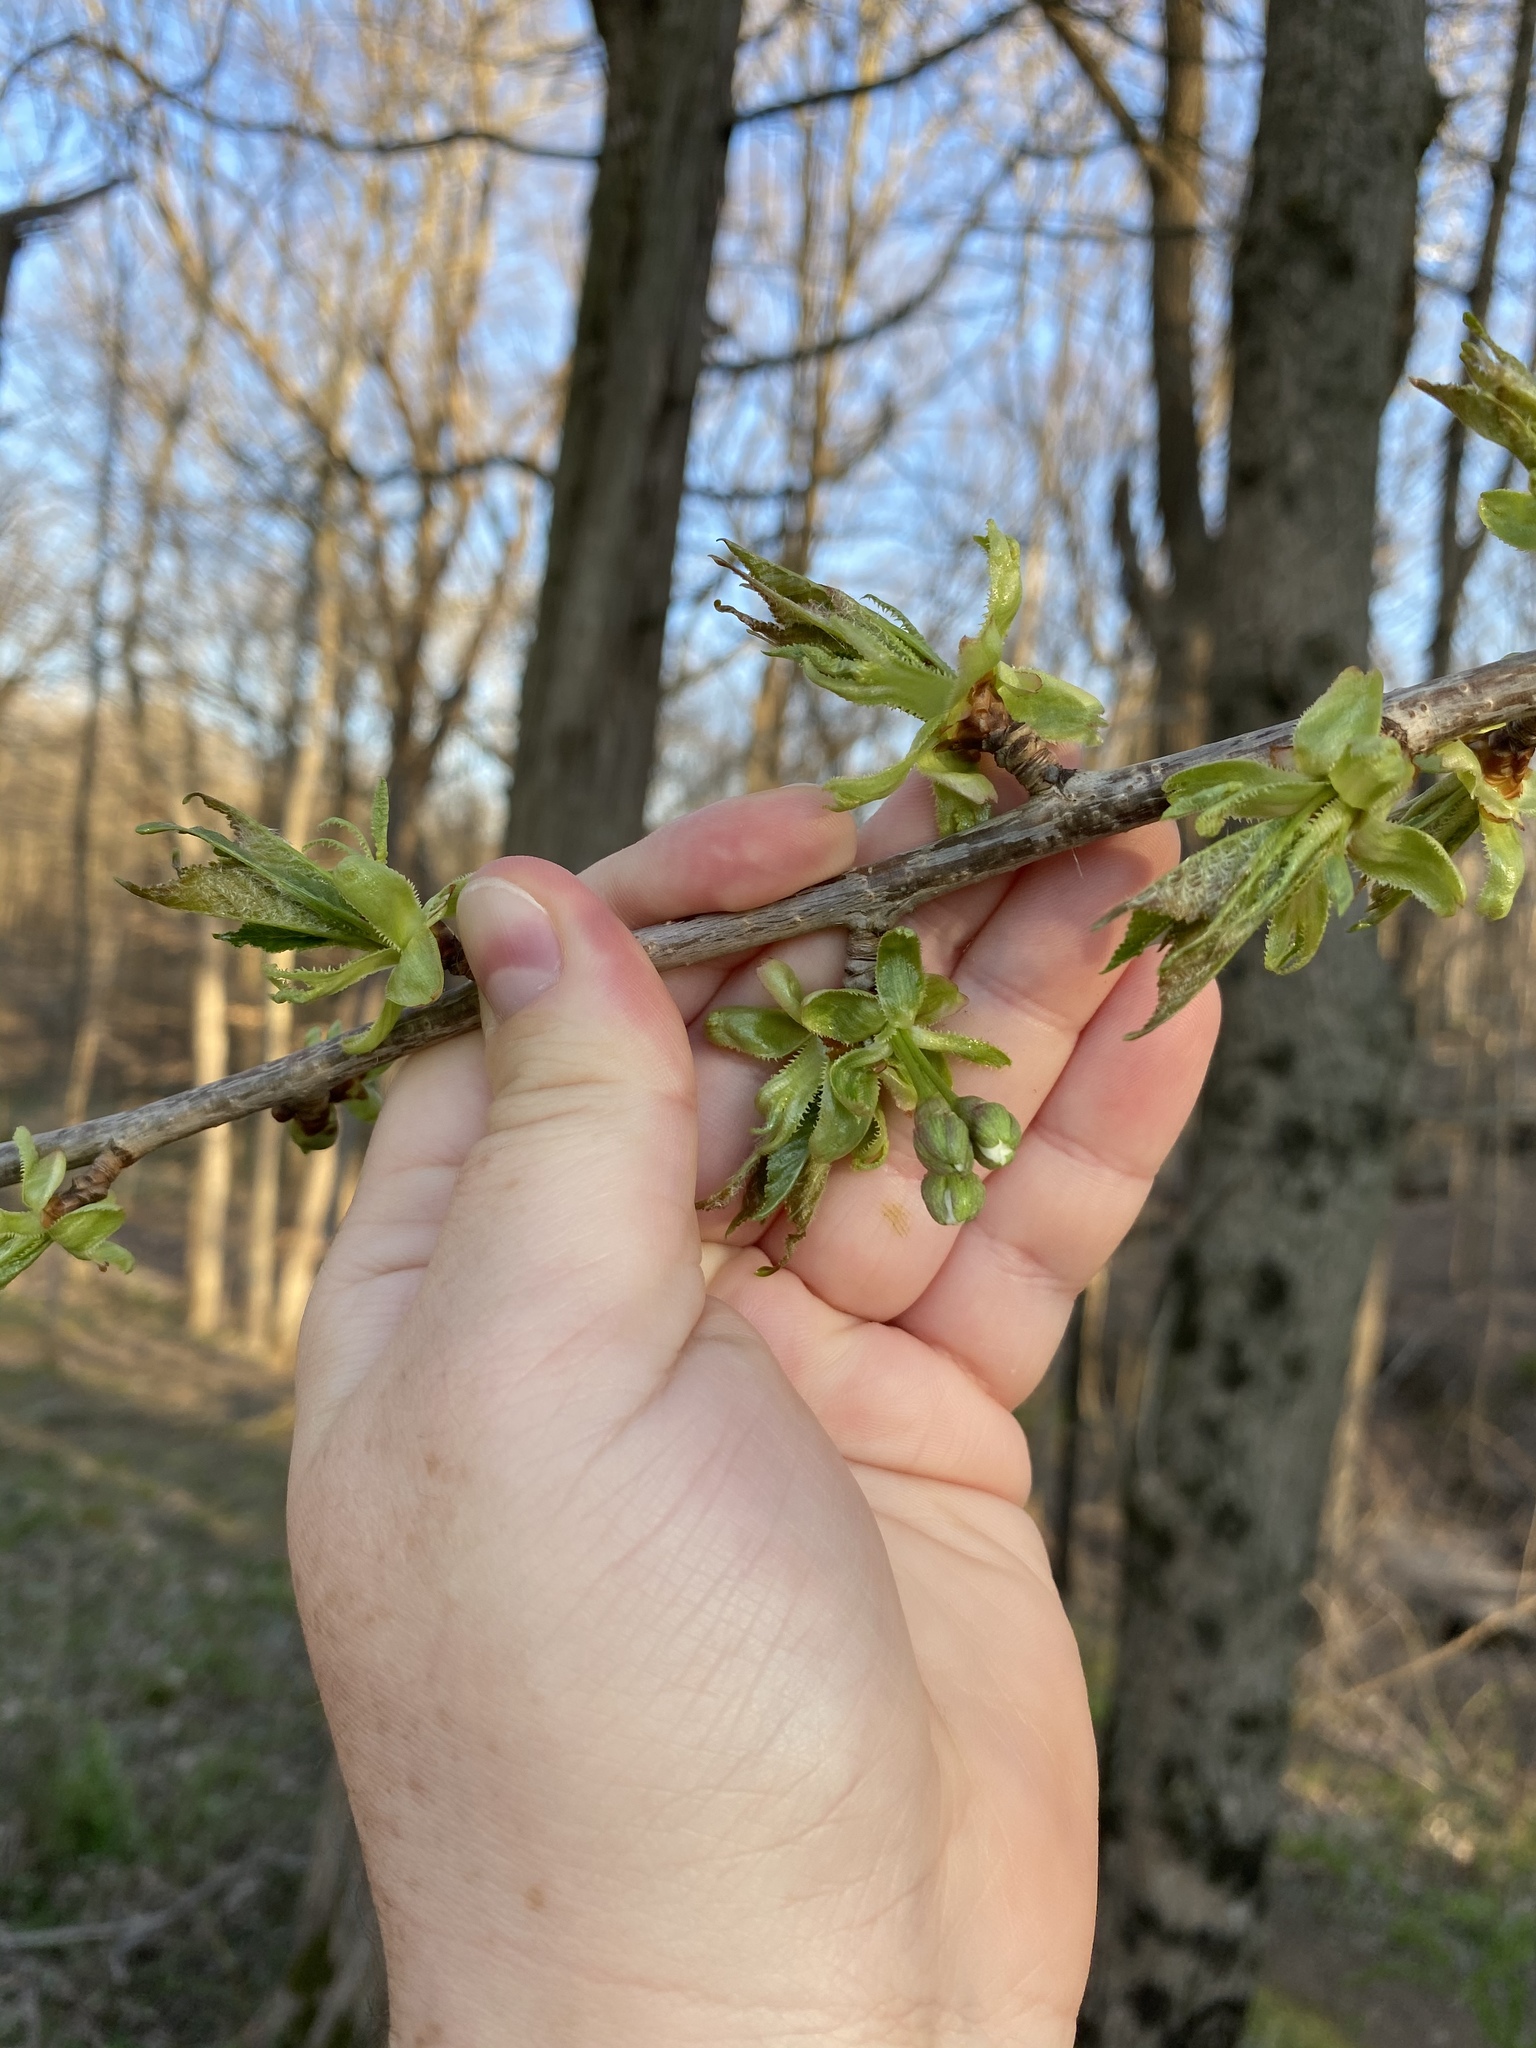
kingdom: Plantae
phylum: Tracheophyta
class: Magnoliopsida
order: Rosales
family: Rosaceae
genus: Prunus
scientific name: Prunus avium
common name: Sweet cherry
